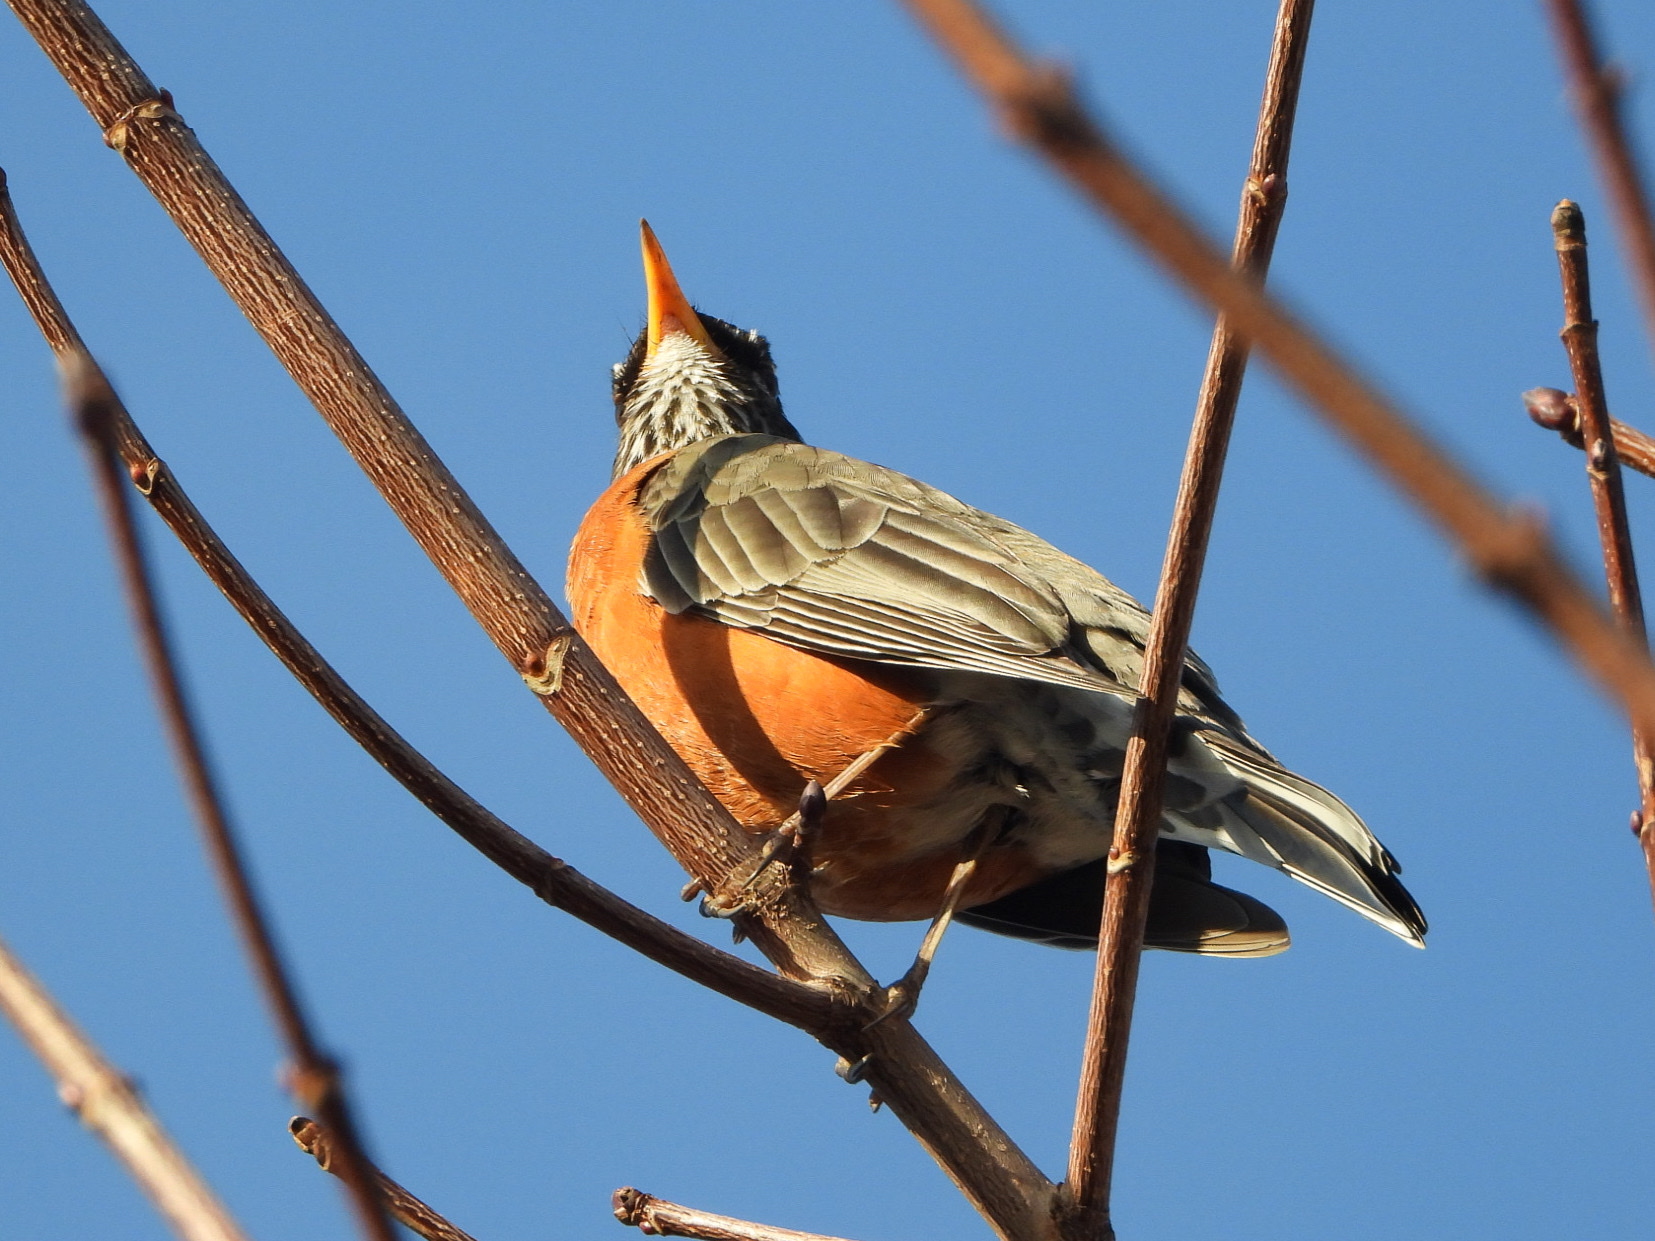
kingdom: Animalia
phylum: Chordata
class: Aves
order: Passeriformes
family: Turdidae
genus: Turdus
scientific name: Turdus migratorius
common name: American robin
